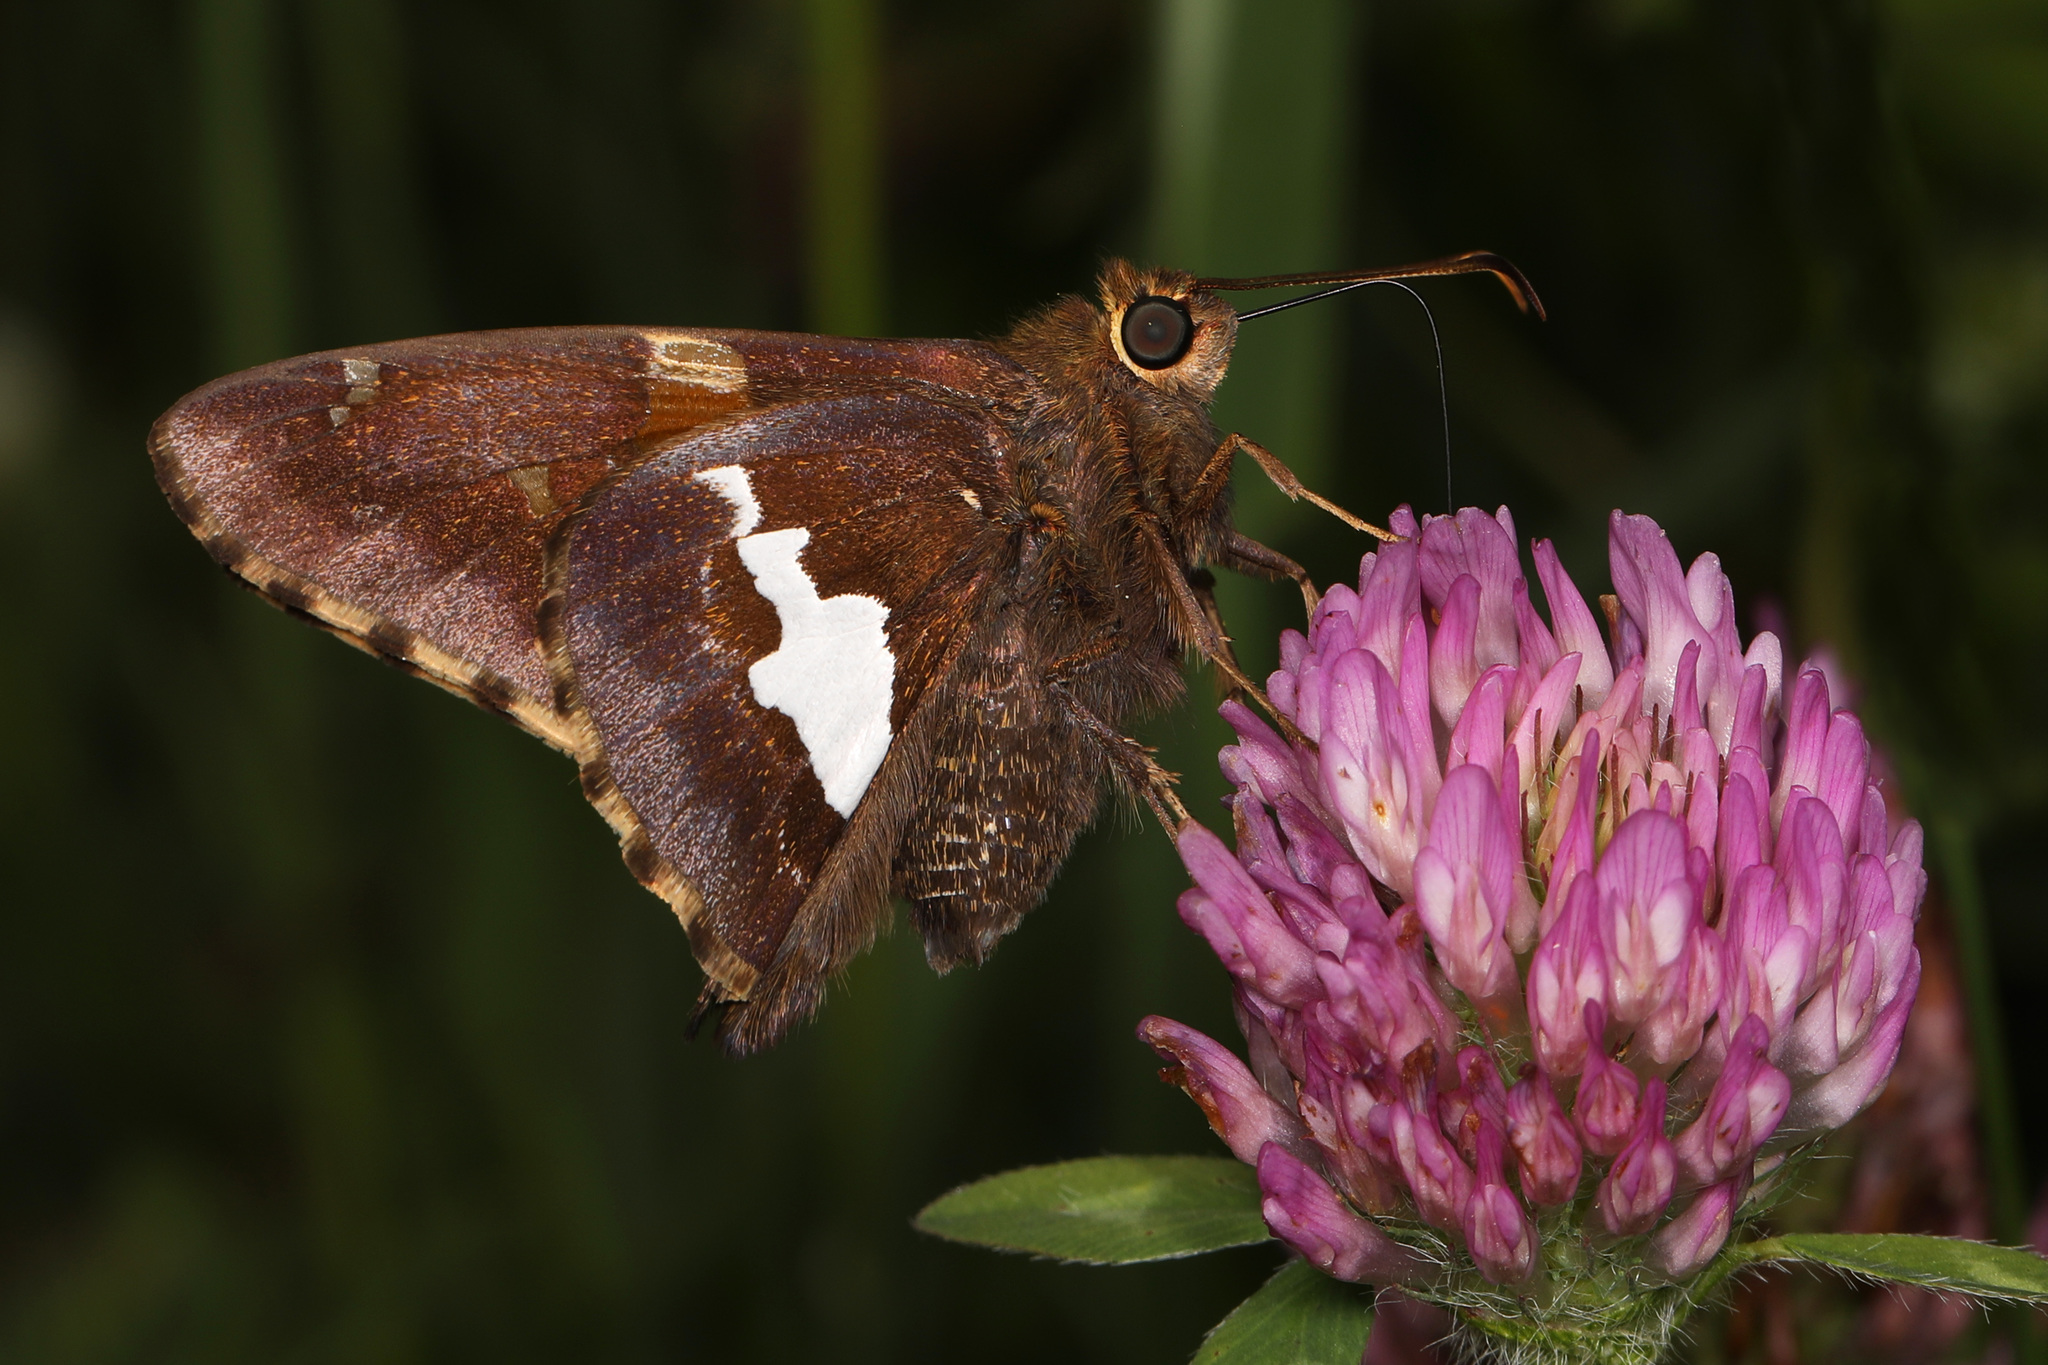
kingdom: Animalia
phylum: Arthropoda
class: Insecta
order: Lepidoptera
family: Hesperiidae
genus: Epargyreus
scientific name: Epargyreus clarus
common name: Silver-spotted skipper
